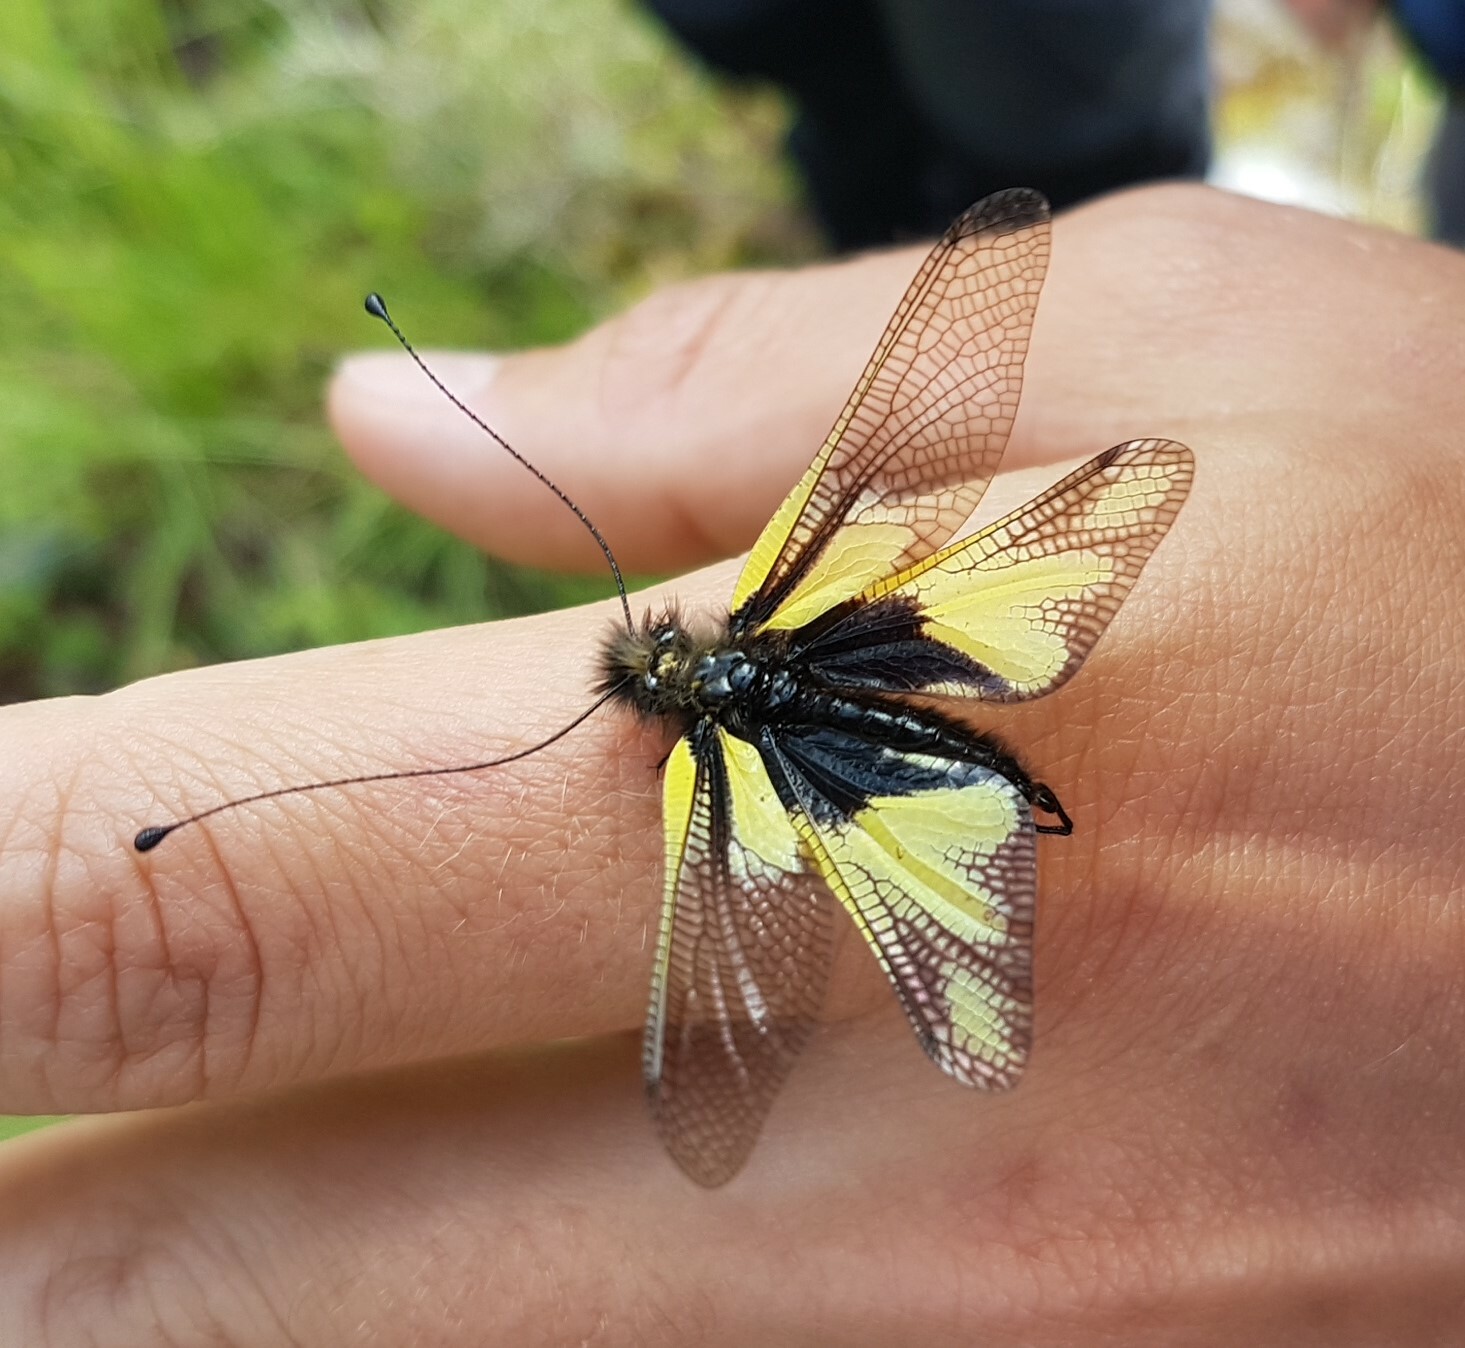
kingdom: Animalia
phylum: Arthropoda
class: Insecta
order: Neuroptera
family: Ascalaphidae
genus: Libelloides
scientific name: Libelloides coccajus
